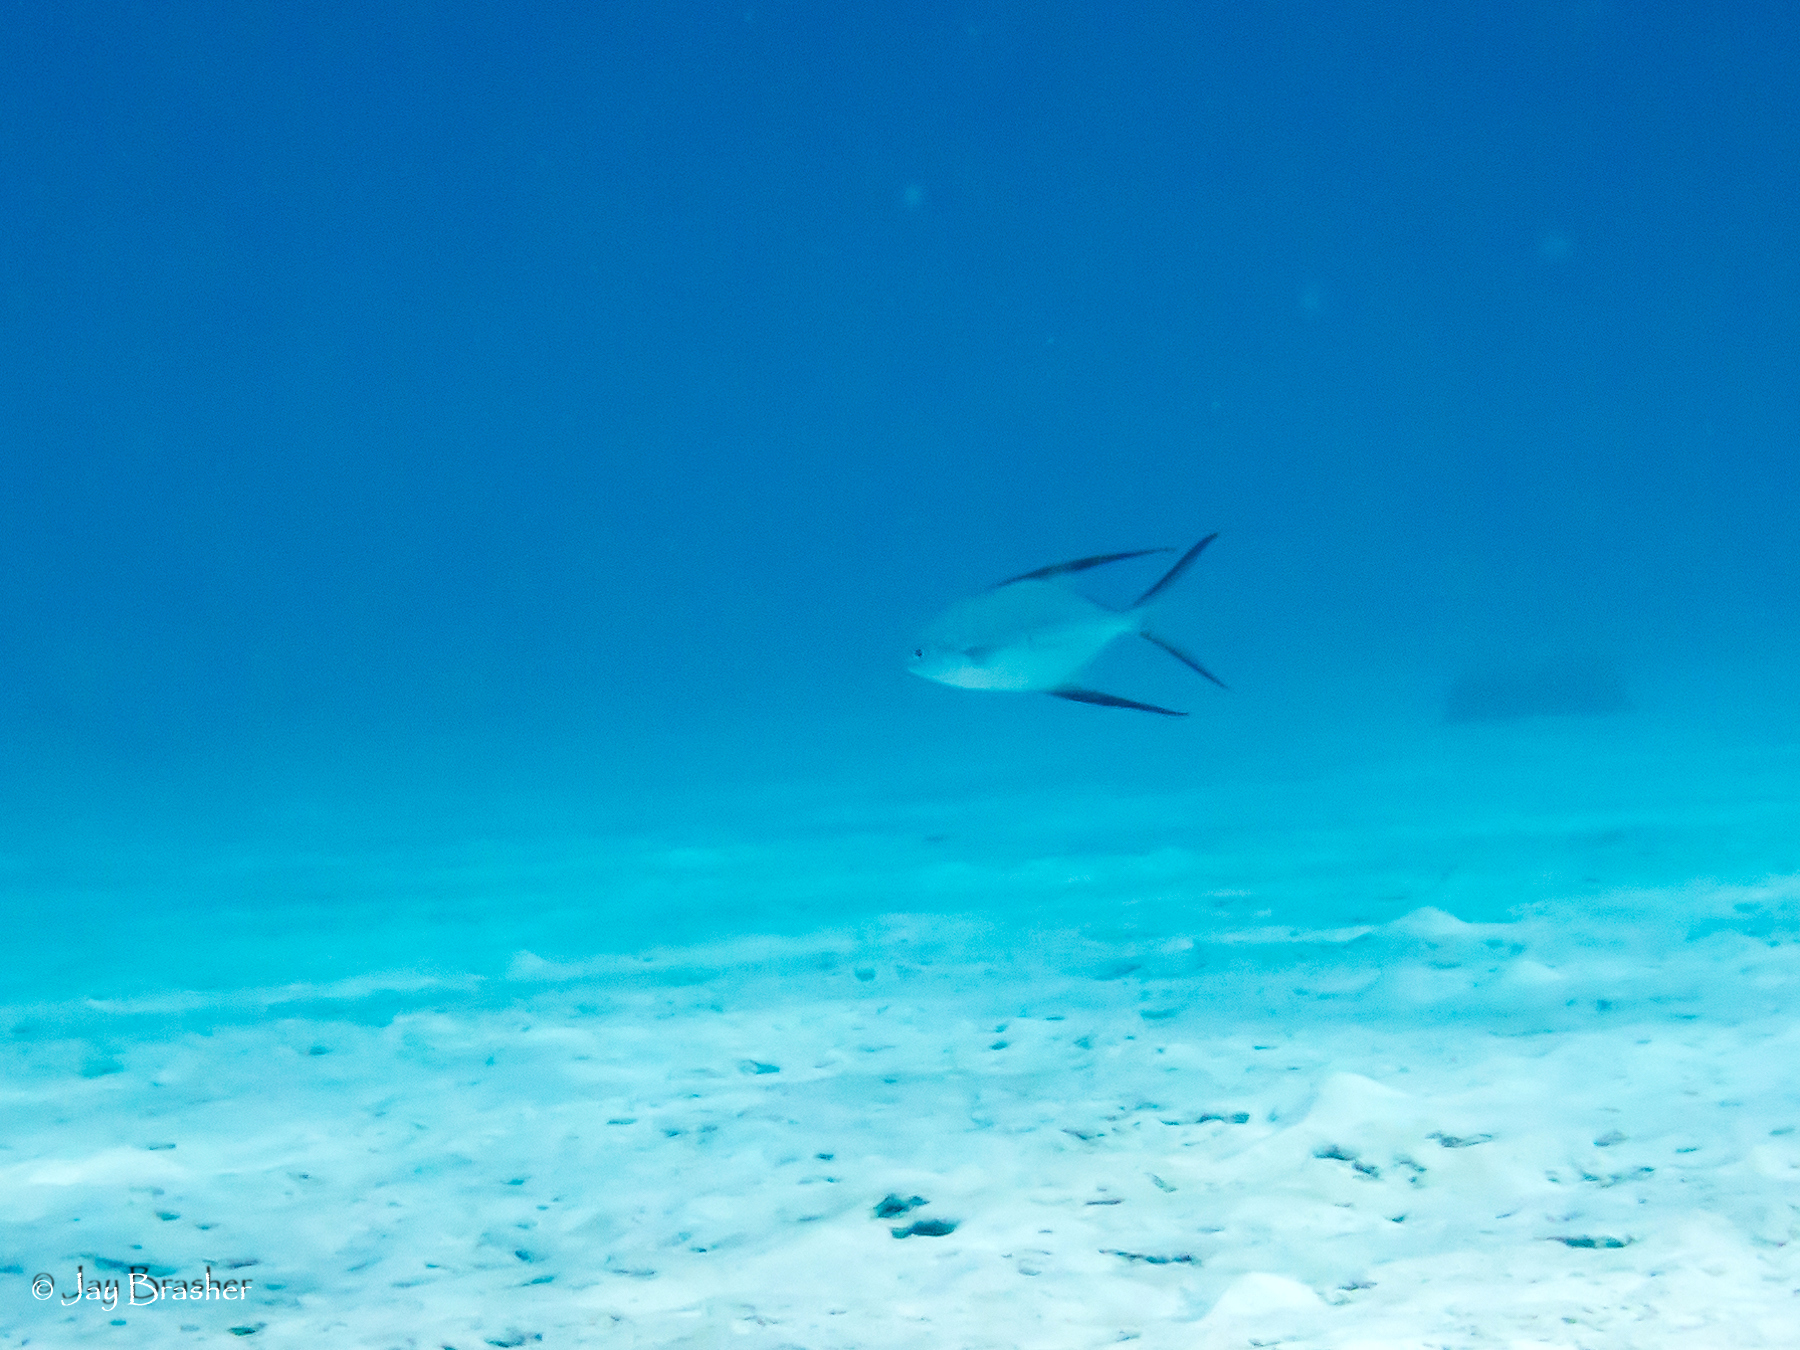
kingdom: Animalia
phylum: Chordata
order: Perciformes
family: Carangidae
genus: Trachinotus
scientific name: Trachinotus goodei
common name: Palometa
